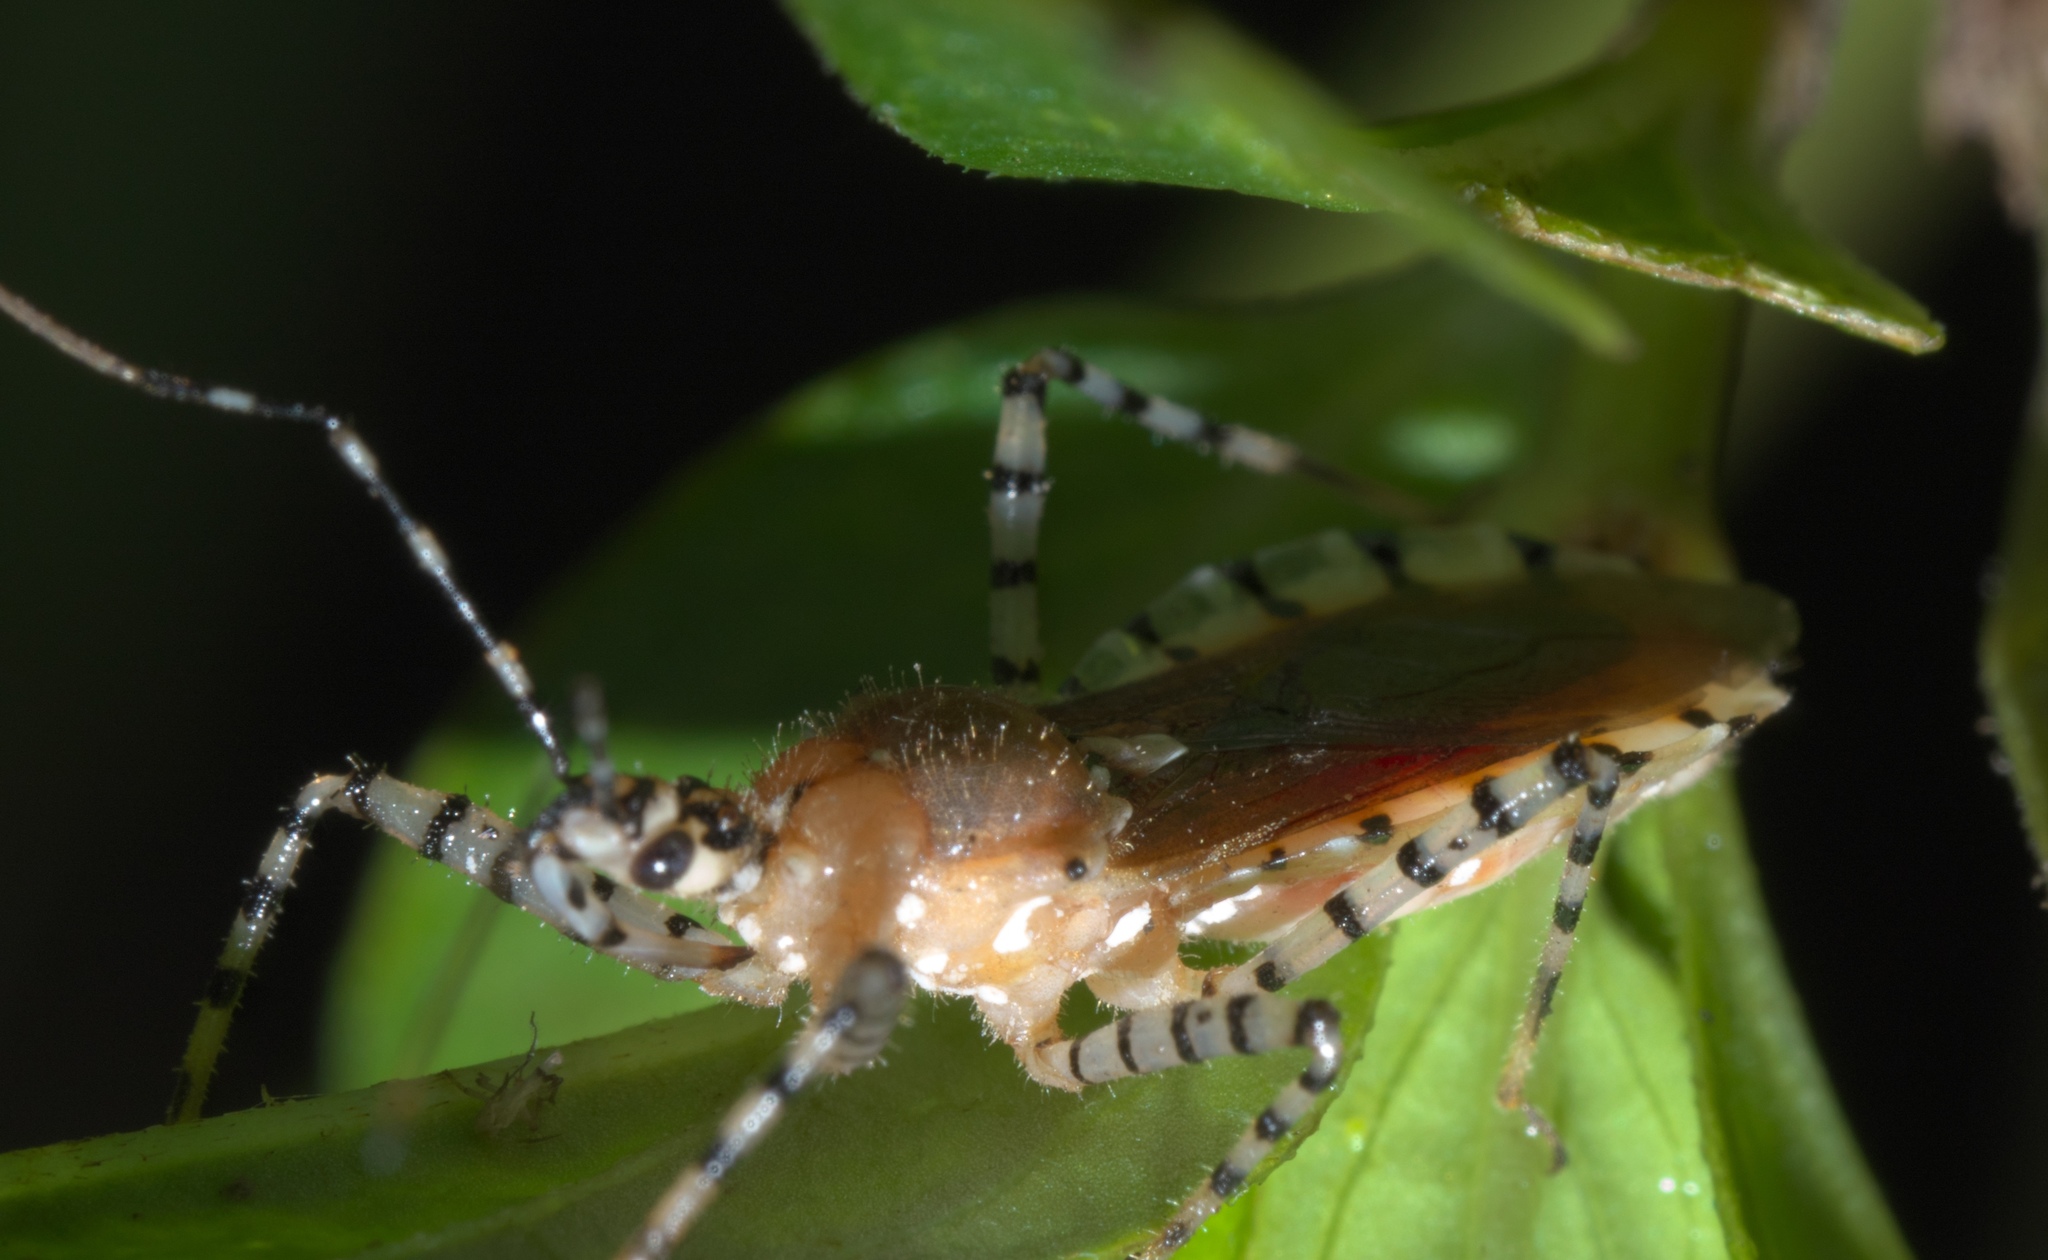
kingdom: Animalia
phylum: Arthropoda
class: Insecta
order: Hemiptera
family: Reduviidae
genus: Pselliopus
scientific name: Pselliopus cinctus
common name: Ringed assassin bug
